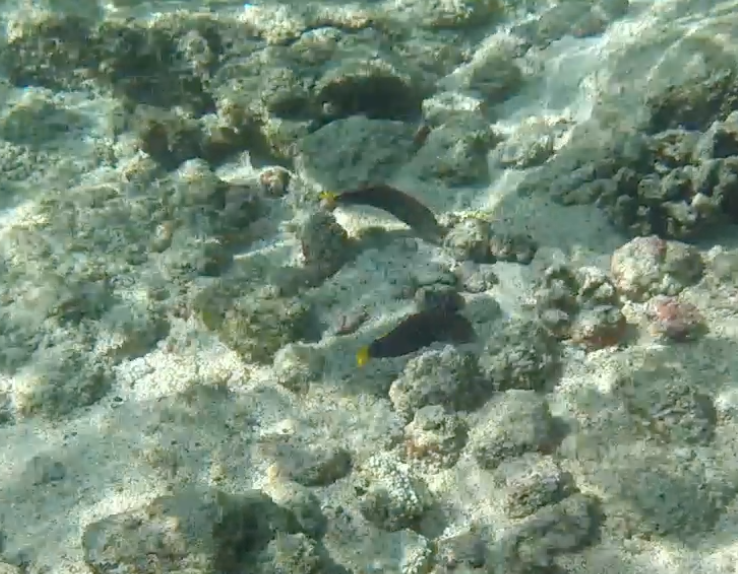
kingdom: Animalia
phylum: Chordata
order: Perciformes
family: Labridae
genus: Coris
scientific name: Coris gaimard
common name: Yellowtail coris
